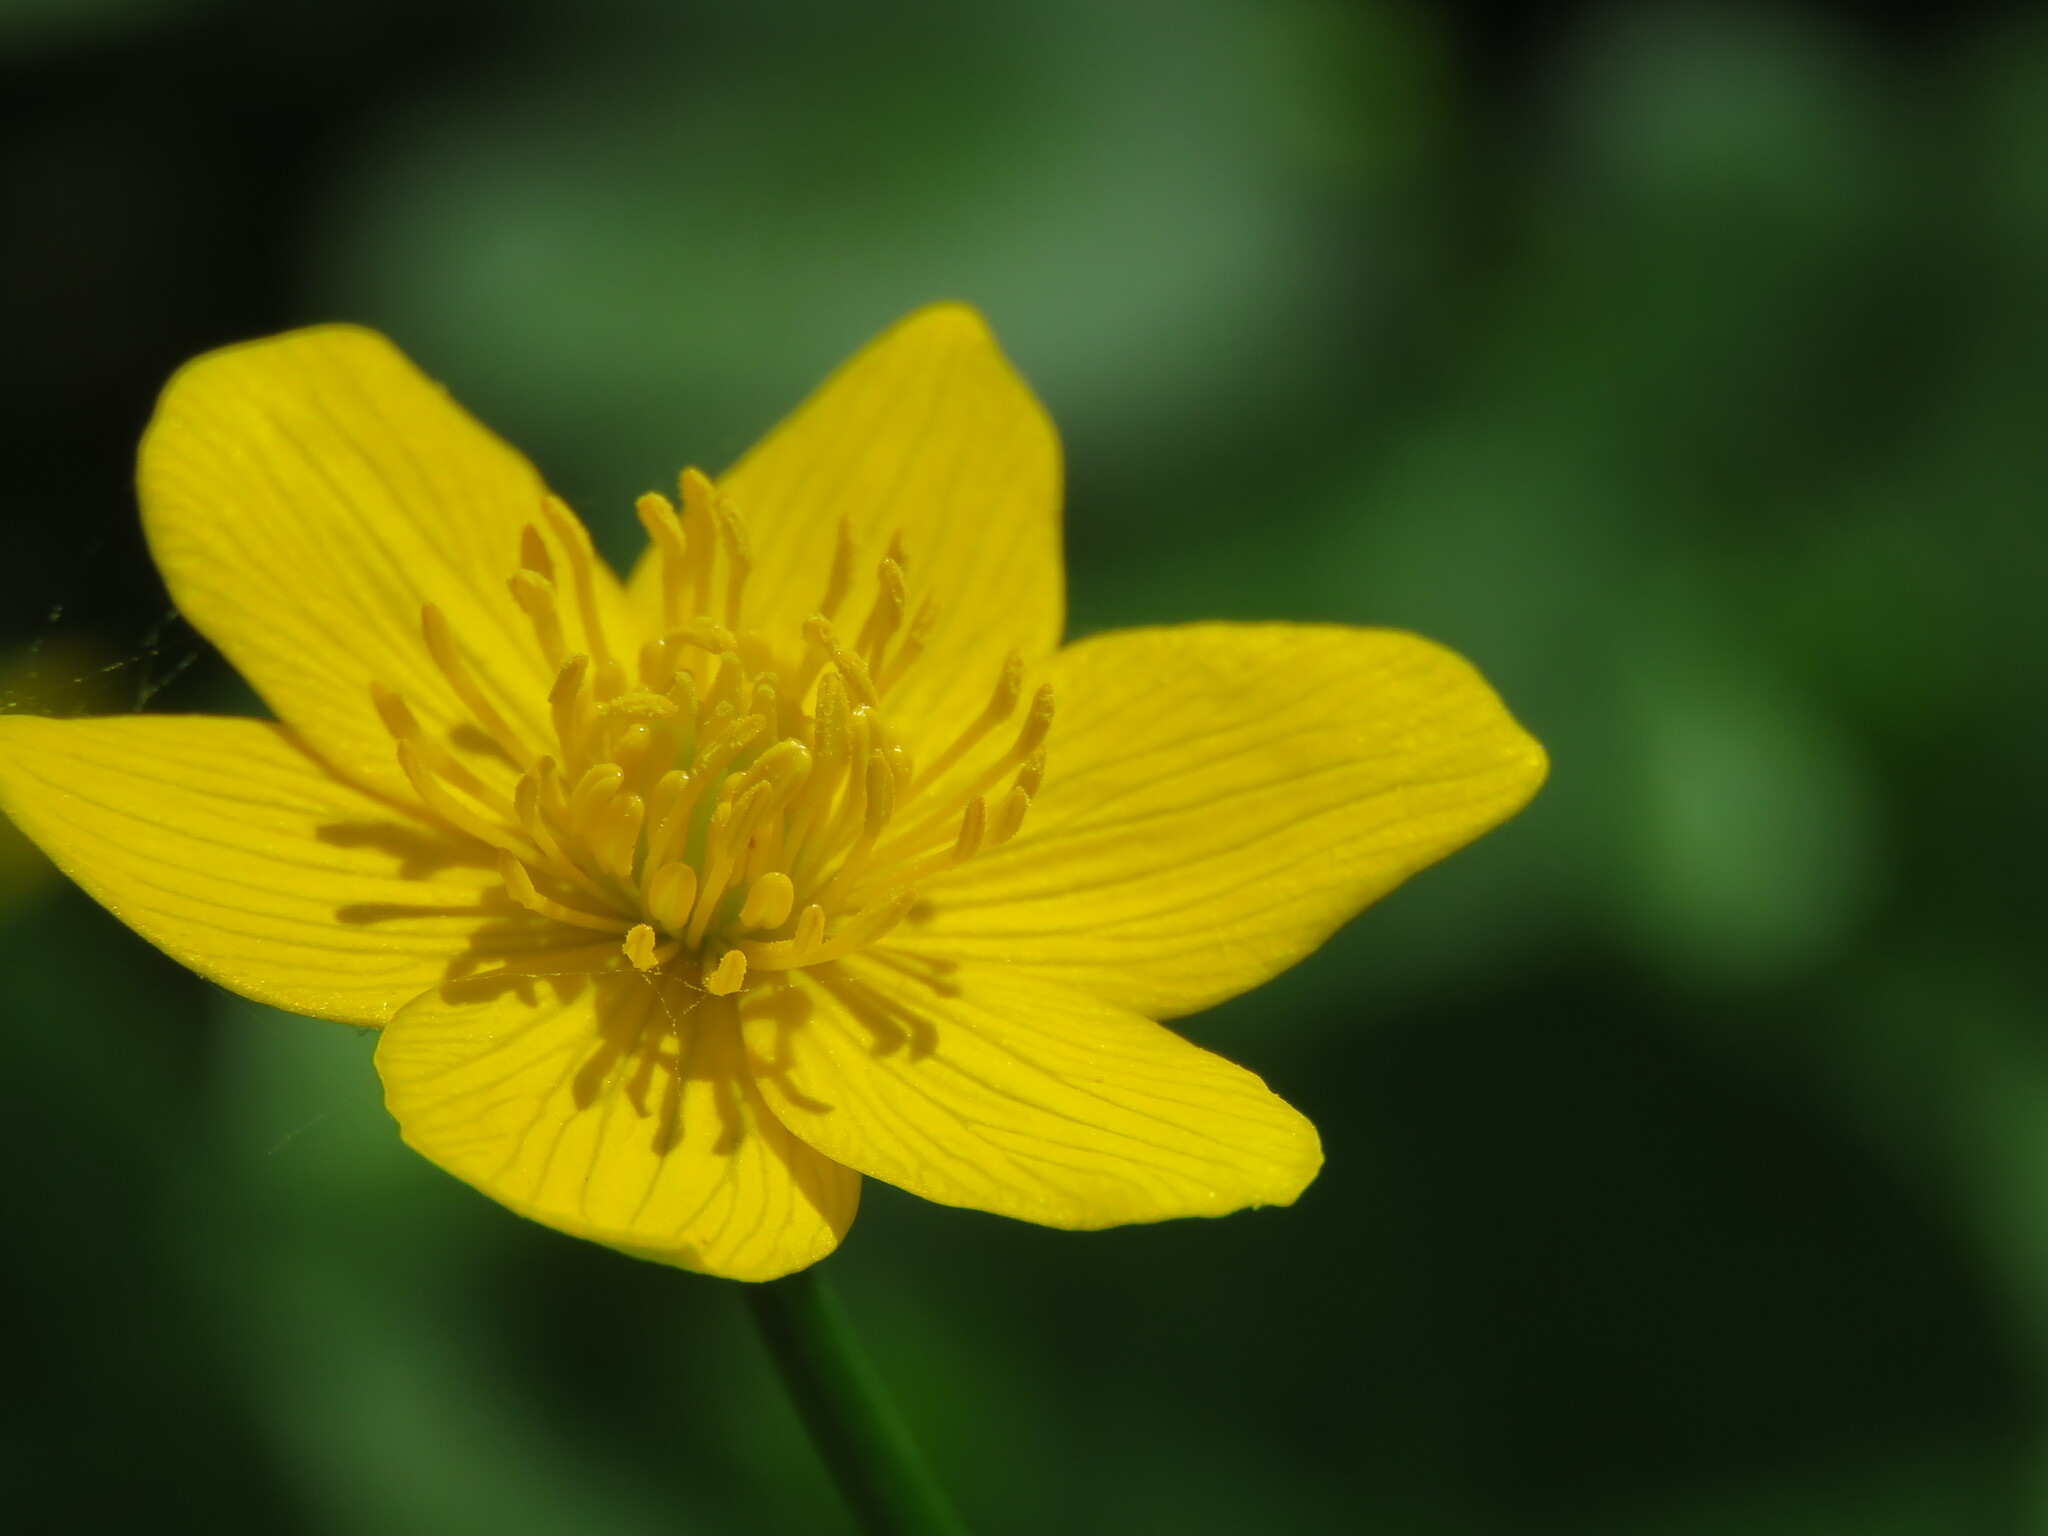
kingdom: Plantae
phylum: Tracheophyta
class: Magnoliopsida
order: Ranunculales
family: Ranunculaceae
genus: Caltha
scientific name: Caltha palustris
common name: Marsh marigold
